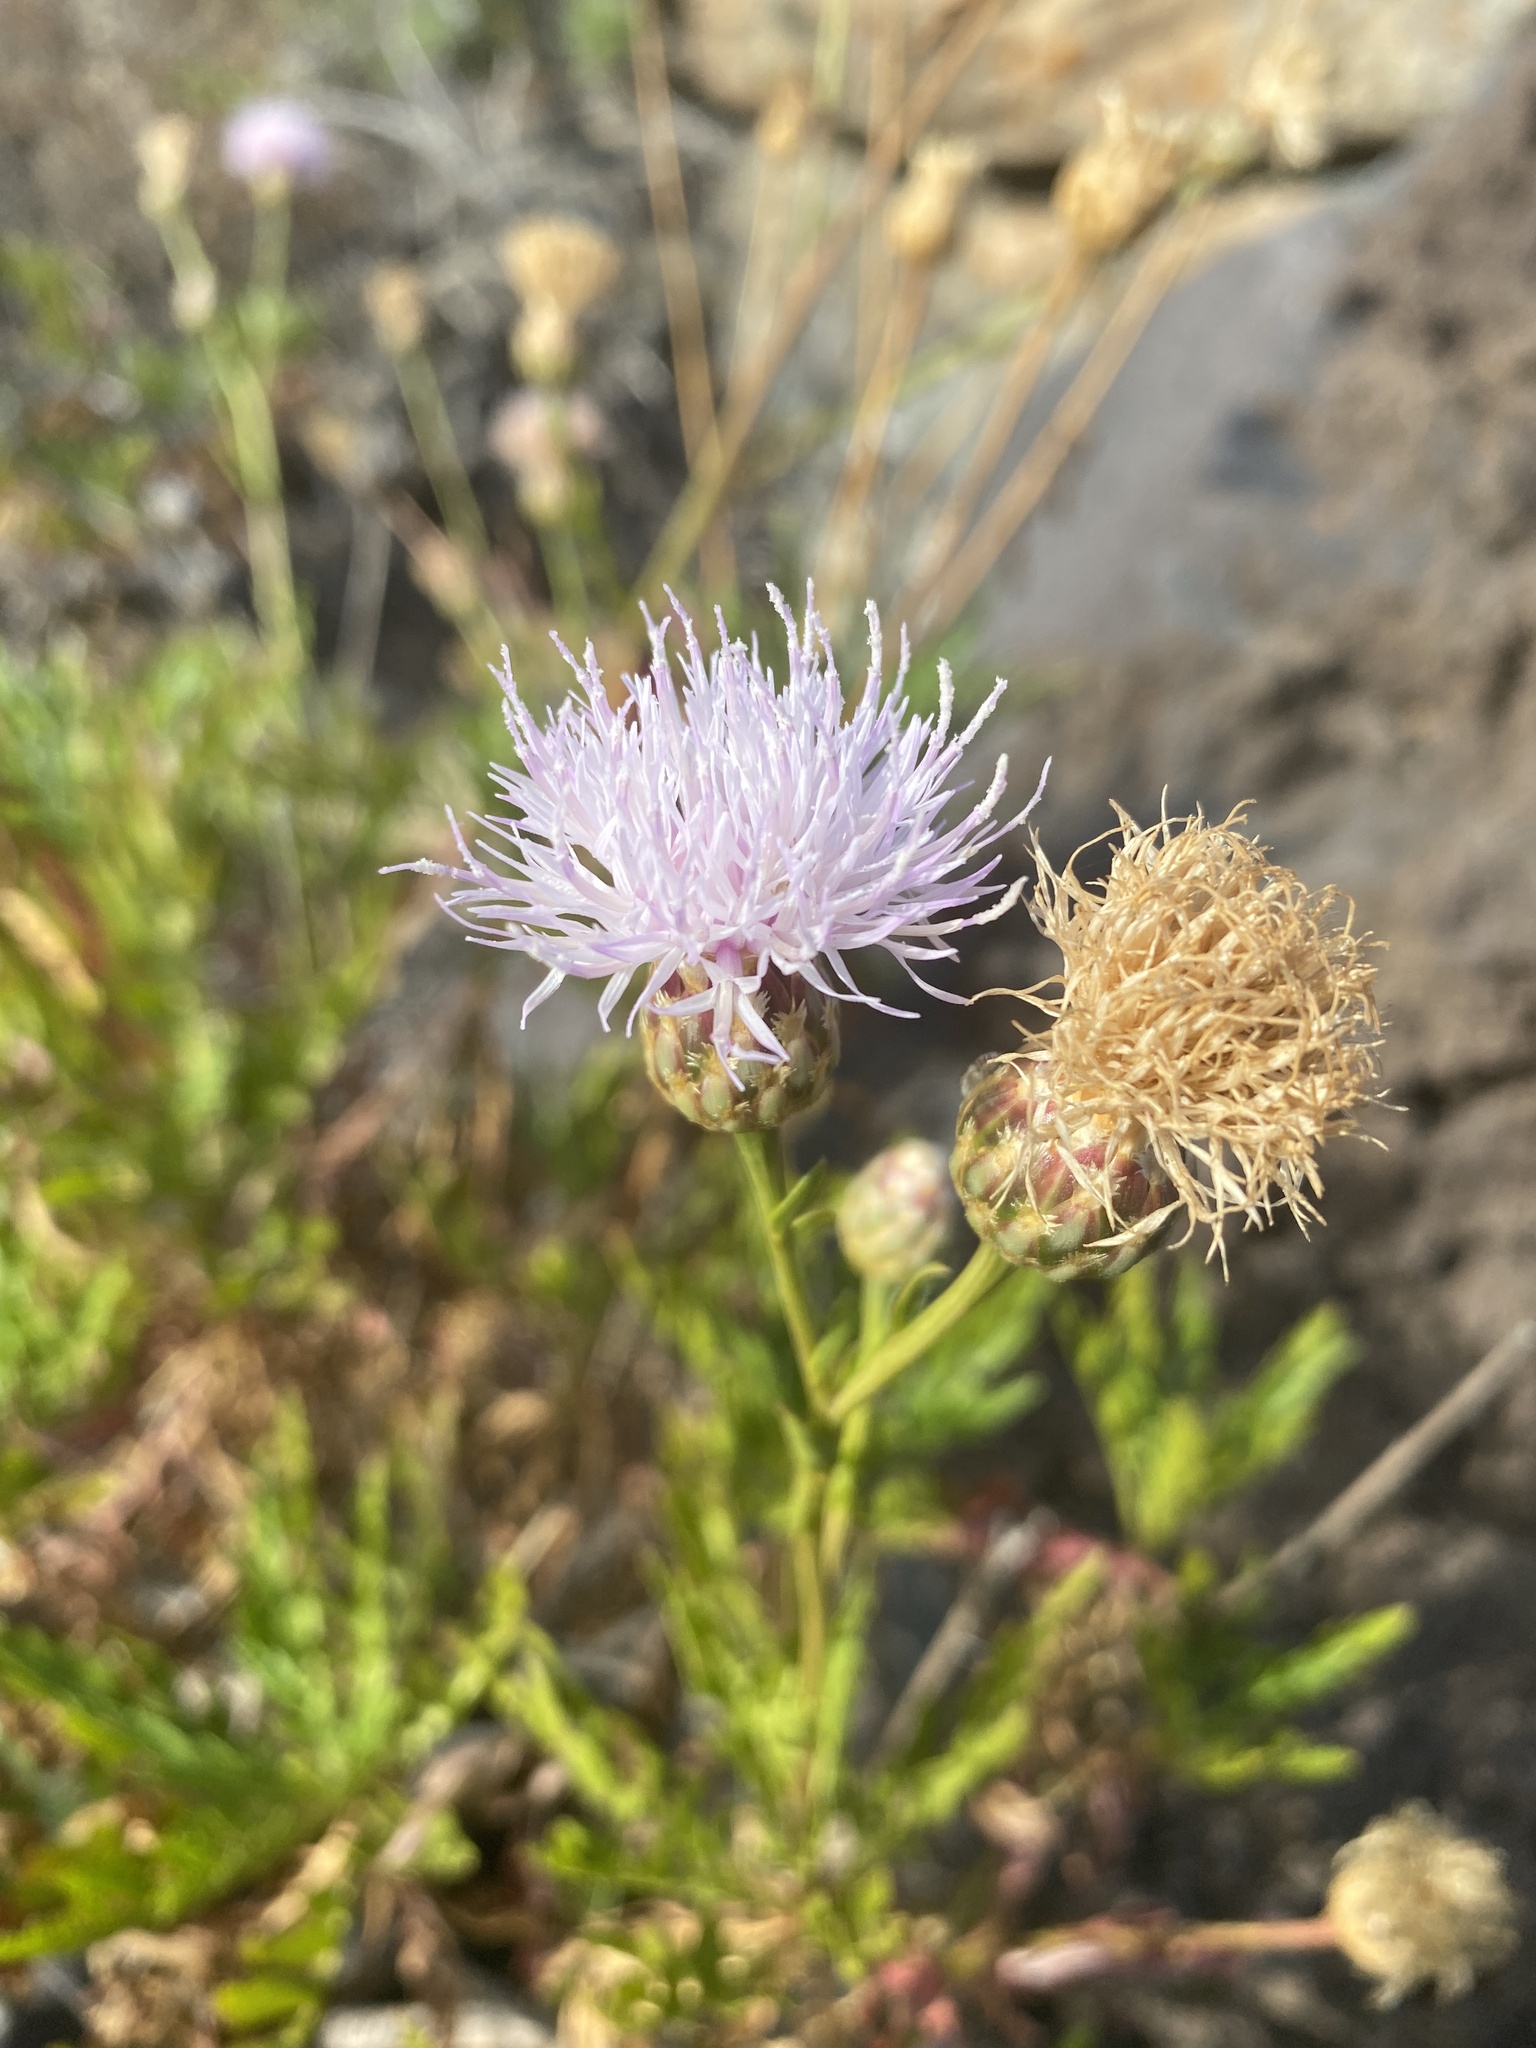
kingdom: Plantae
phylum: Tracheophyta
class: Magnoliopsida
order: Asterales
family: Asteraceae
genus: Cheirolophus
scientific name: Cheirolophus junonianus
